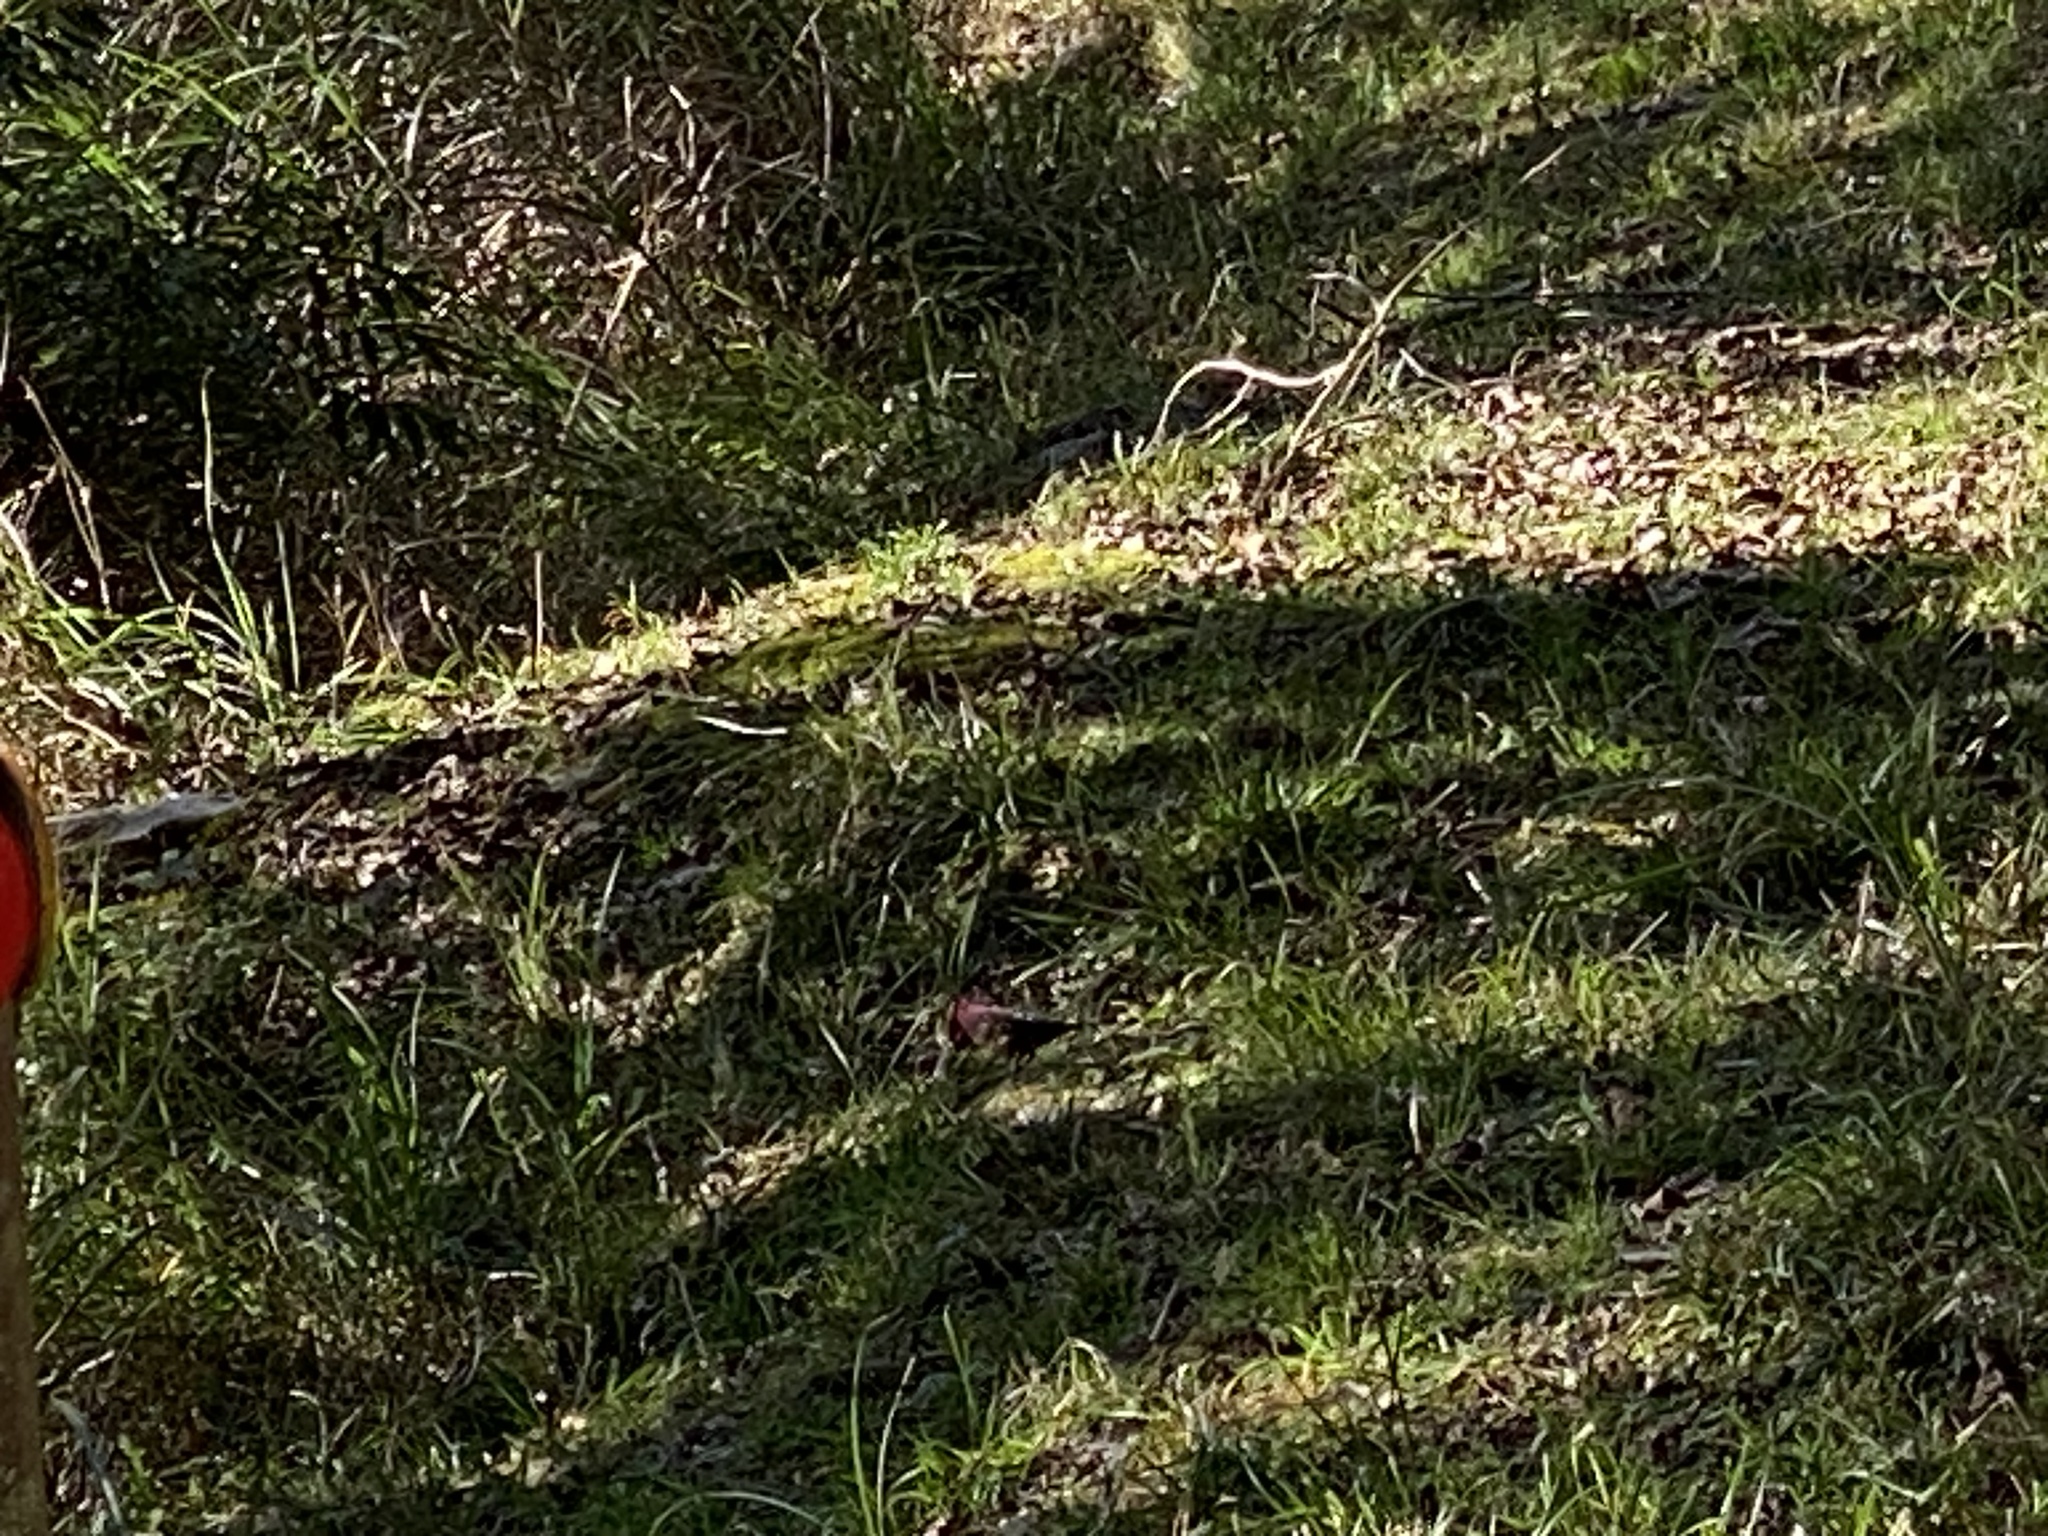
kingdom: Animalia
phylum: Chordata
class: Aves
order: Passeriformes
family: Fringillidae
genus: Carpodacus
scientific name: Carpodacus formosanus
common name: Taiwan rosefinch
